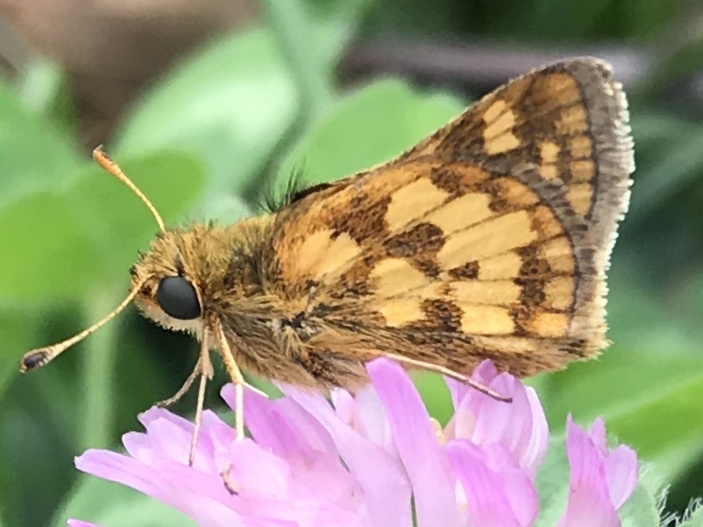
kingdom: Animalia
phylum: Arthropoda
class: Insecta
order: Lepidoptera
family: Hesperiidae
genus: Polites
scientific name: Polites coras
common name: Peck's skipper
